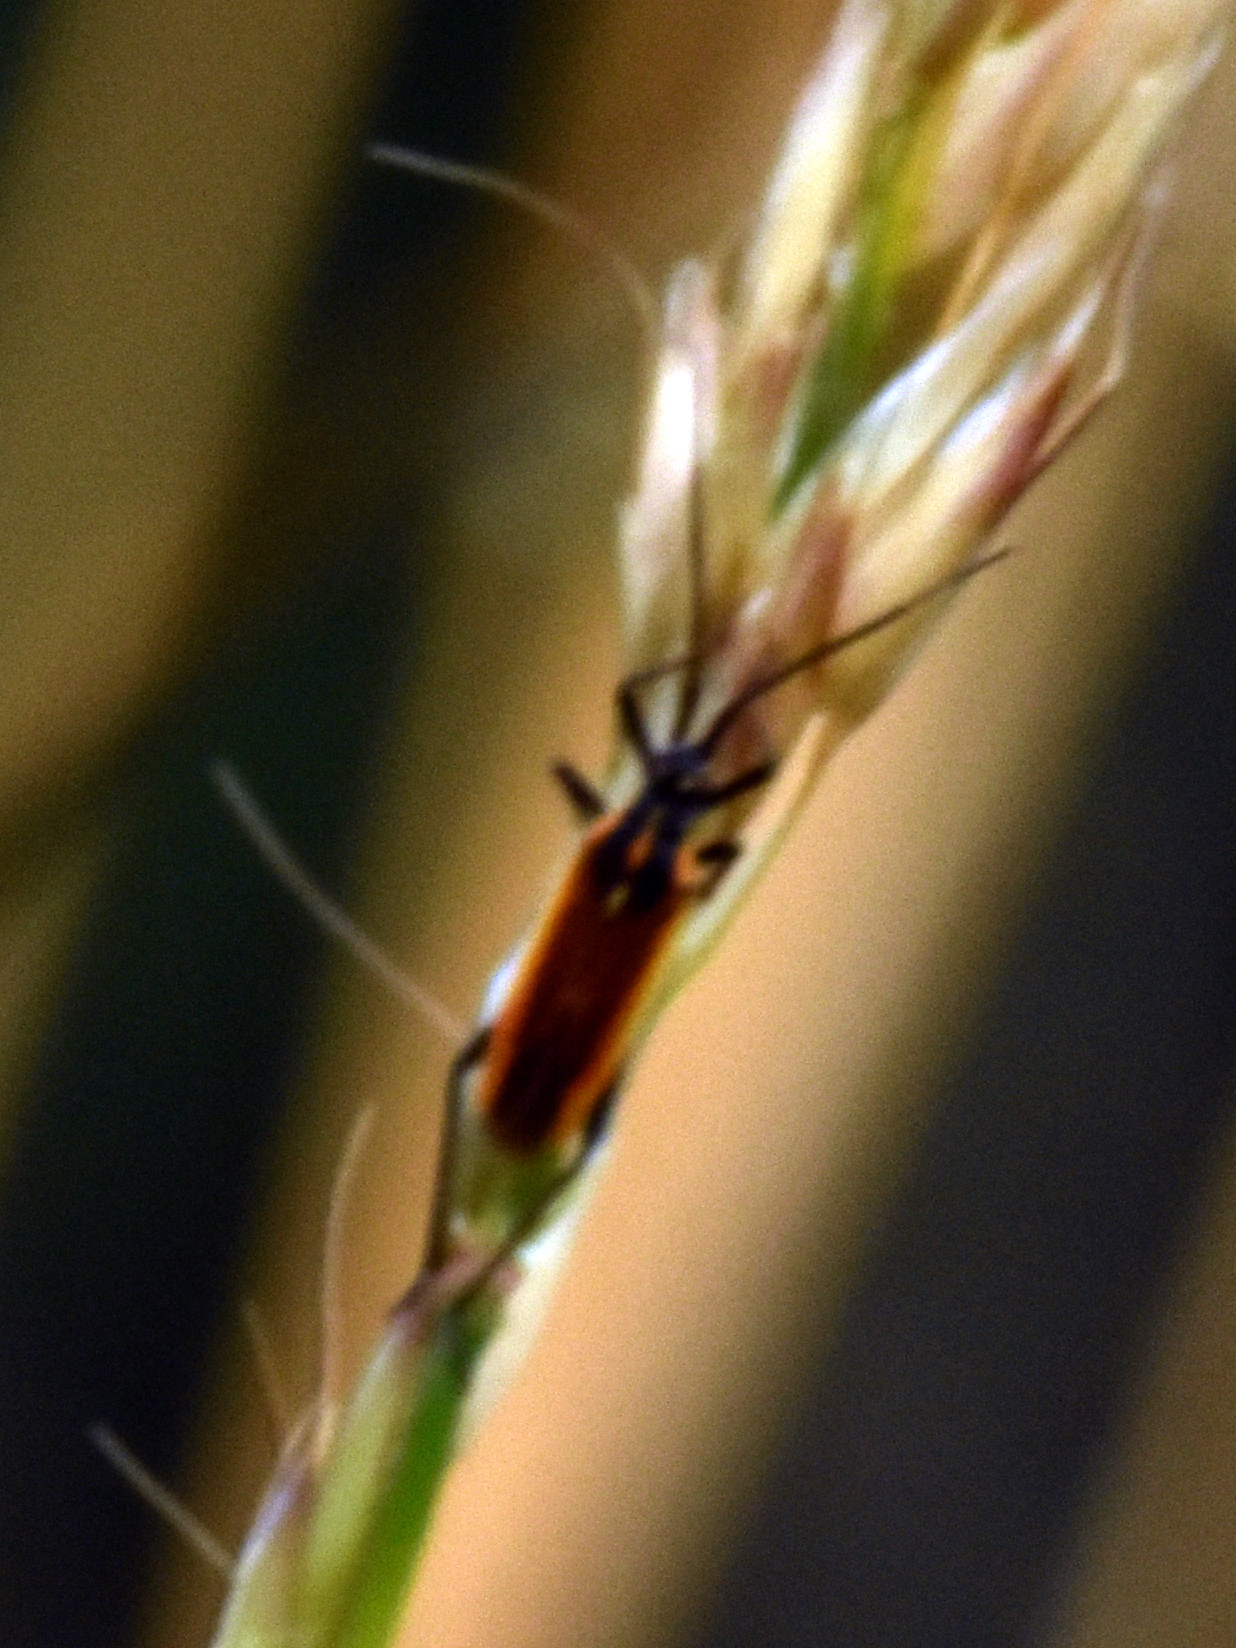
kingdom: Animalia
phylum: Arthropoda
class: Insecta
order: Hemiptera
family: Miridae
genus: Leptopterna
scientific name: Leptopterna dolabrata
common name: Meadow plant bug
